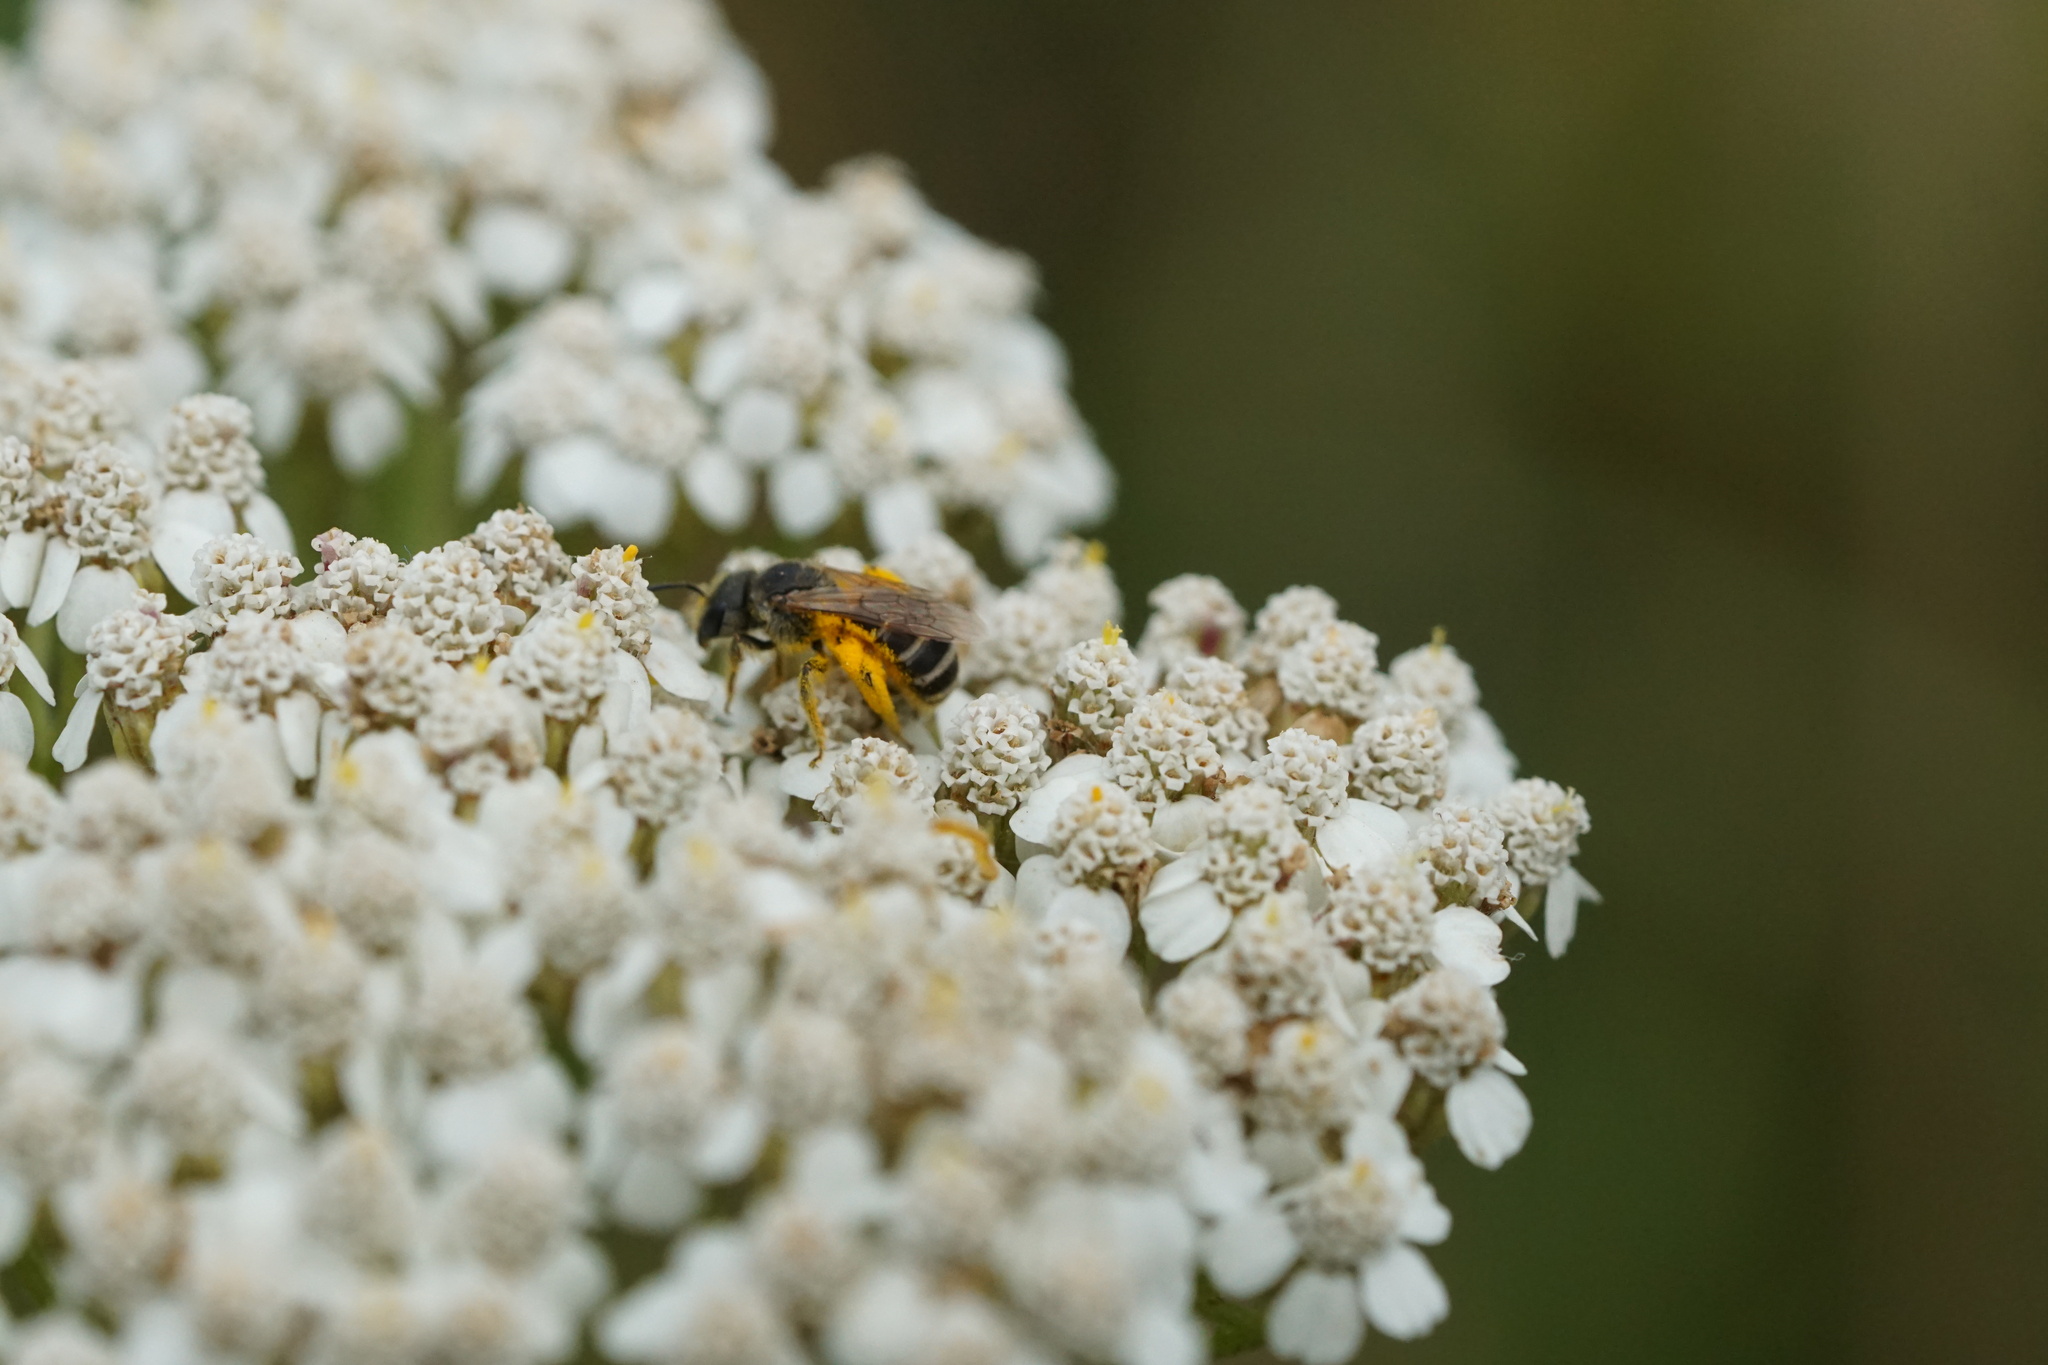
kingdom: Animalia
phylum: Arthropoda
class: Insecta
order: Hymenoptera
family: Halictidae
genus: Halictus
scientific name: Halictus ligatus
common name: Ligated furrow bee
